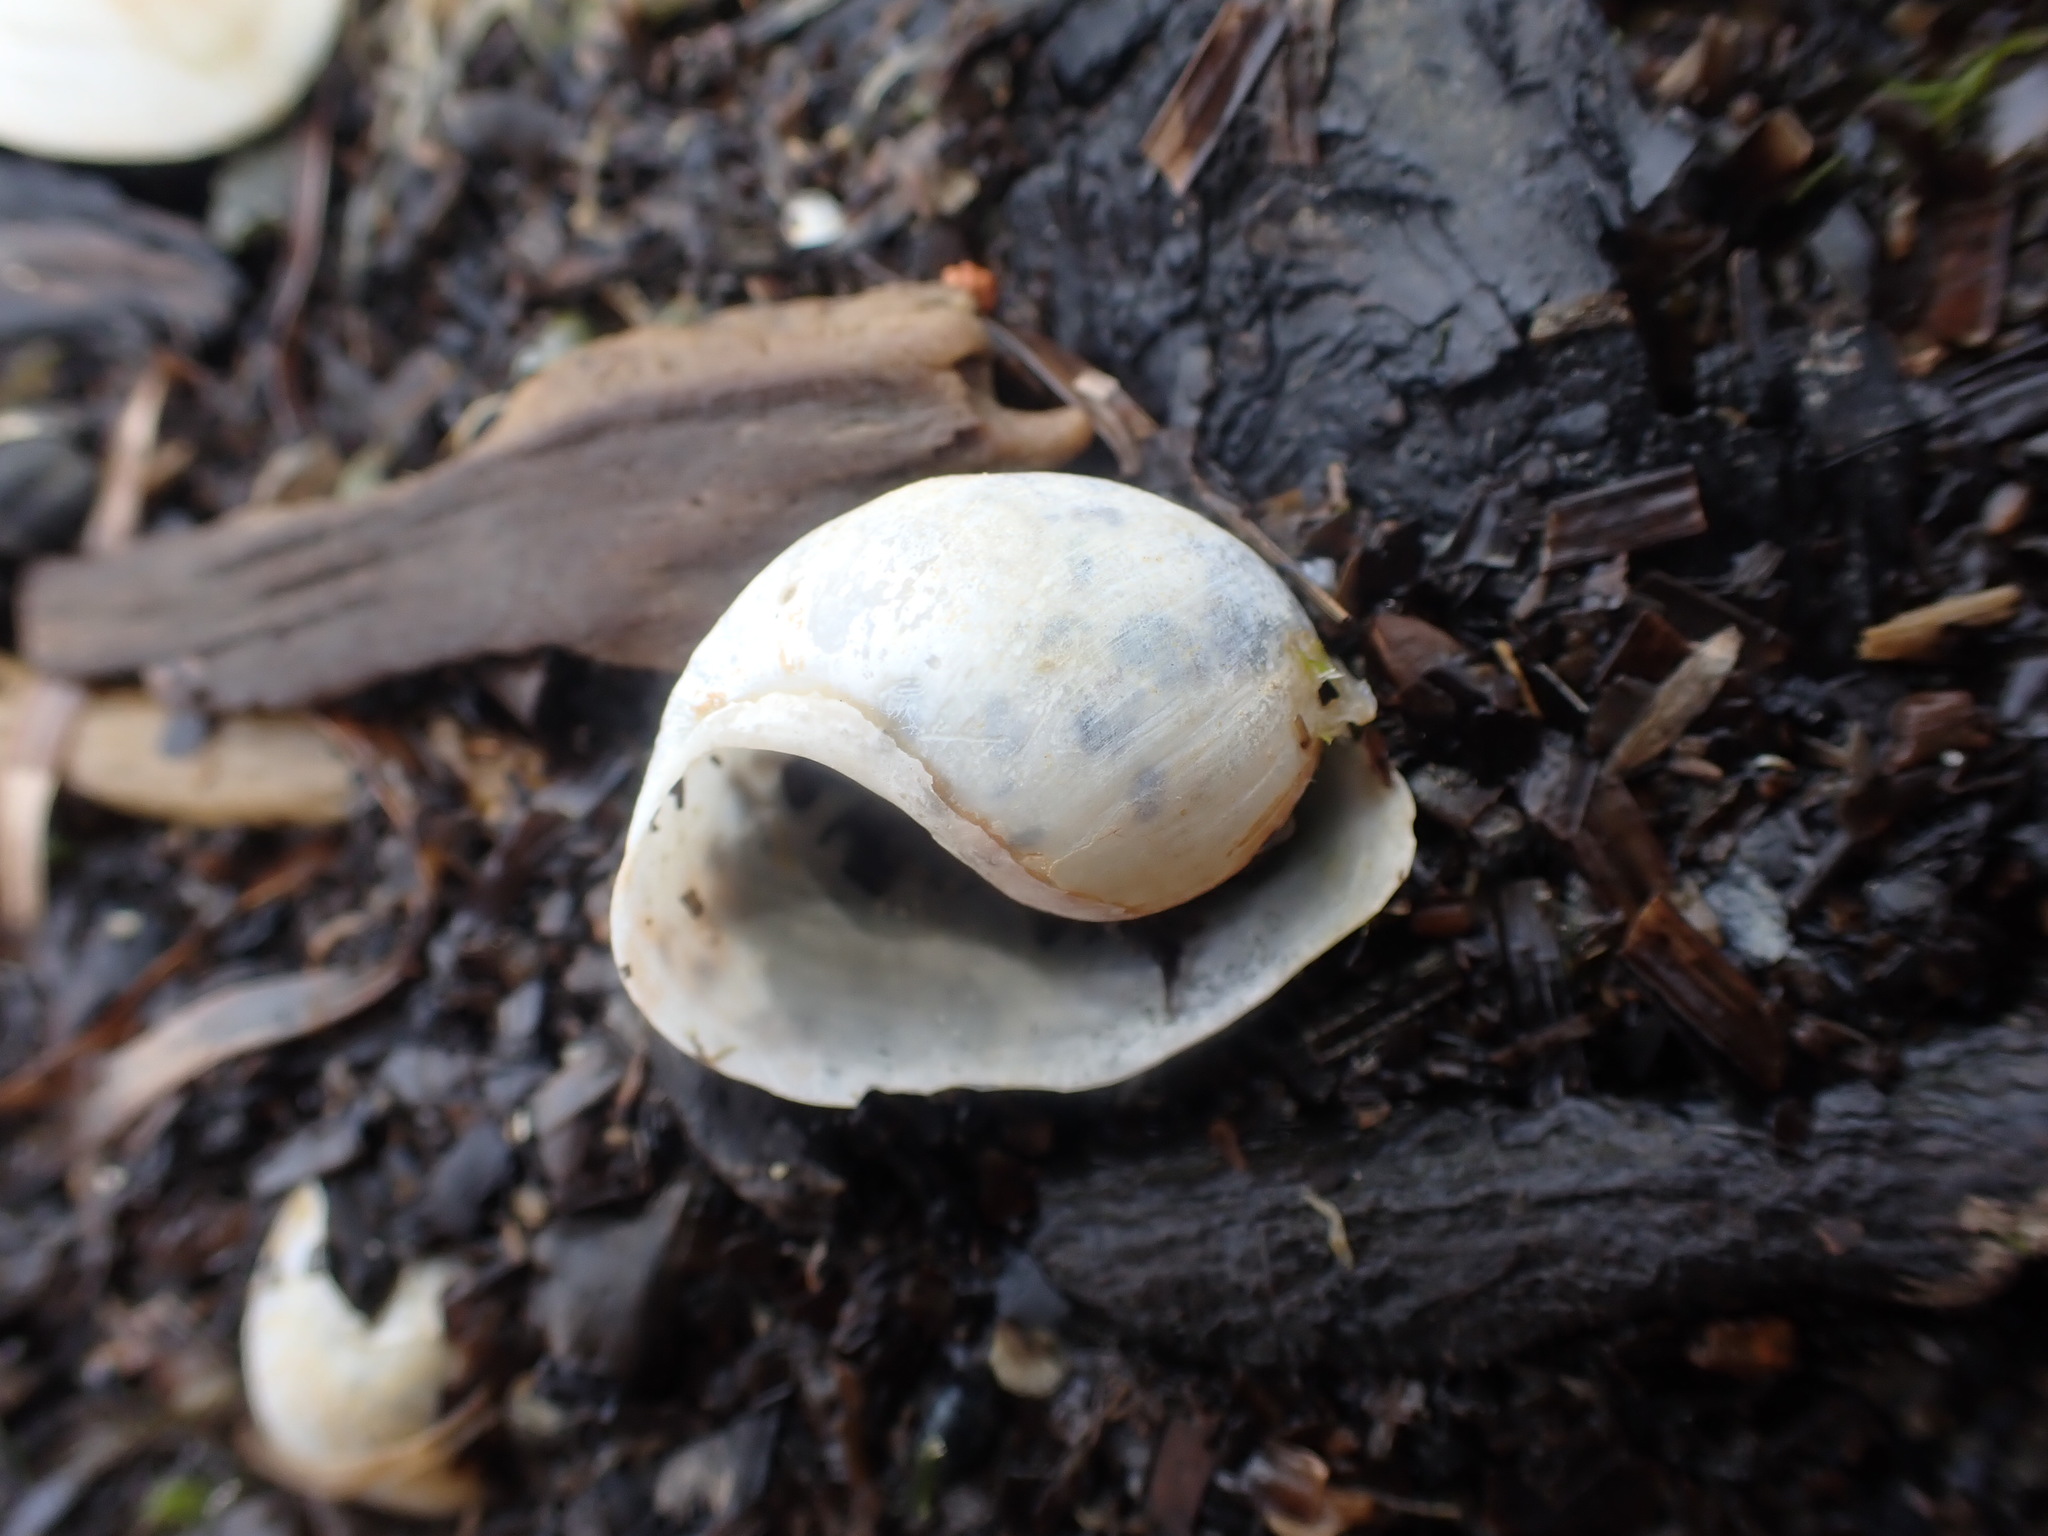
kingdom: Animalia
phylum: Mollusca
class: Gastropoda
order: Cephalaspidea
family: Haminoeidae
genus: Papawera
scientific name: Papawera zelandiae
